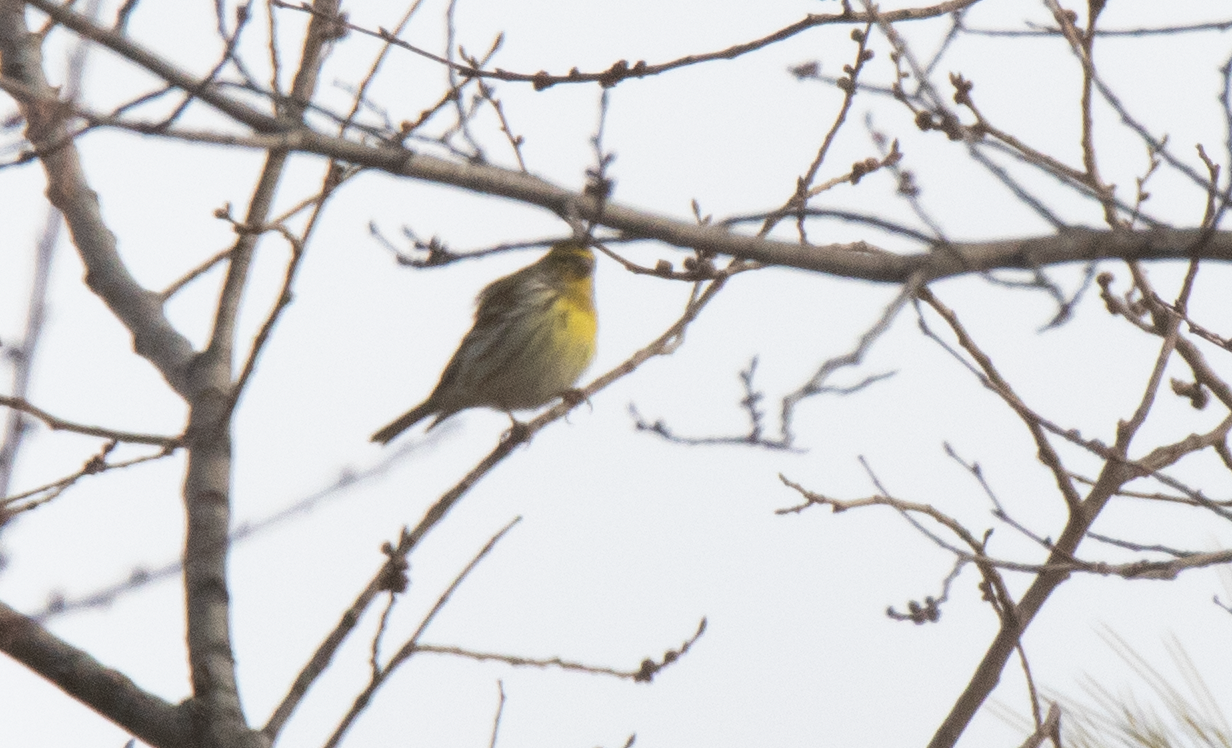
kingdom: Animalia
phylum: Chordata
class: Aves
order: Passeriformes
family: Fringillidae
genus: Serinus
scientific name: Serinus serinus
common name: European serin
